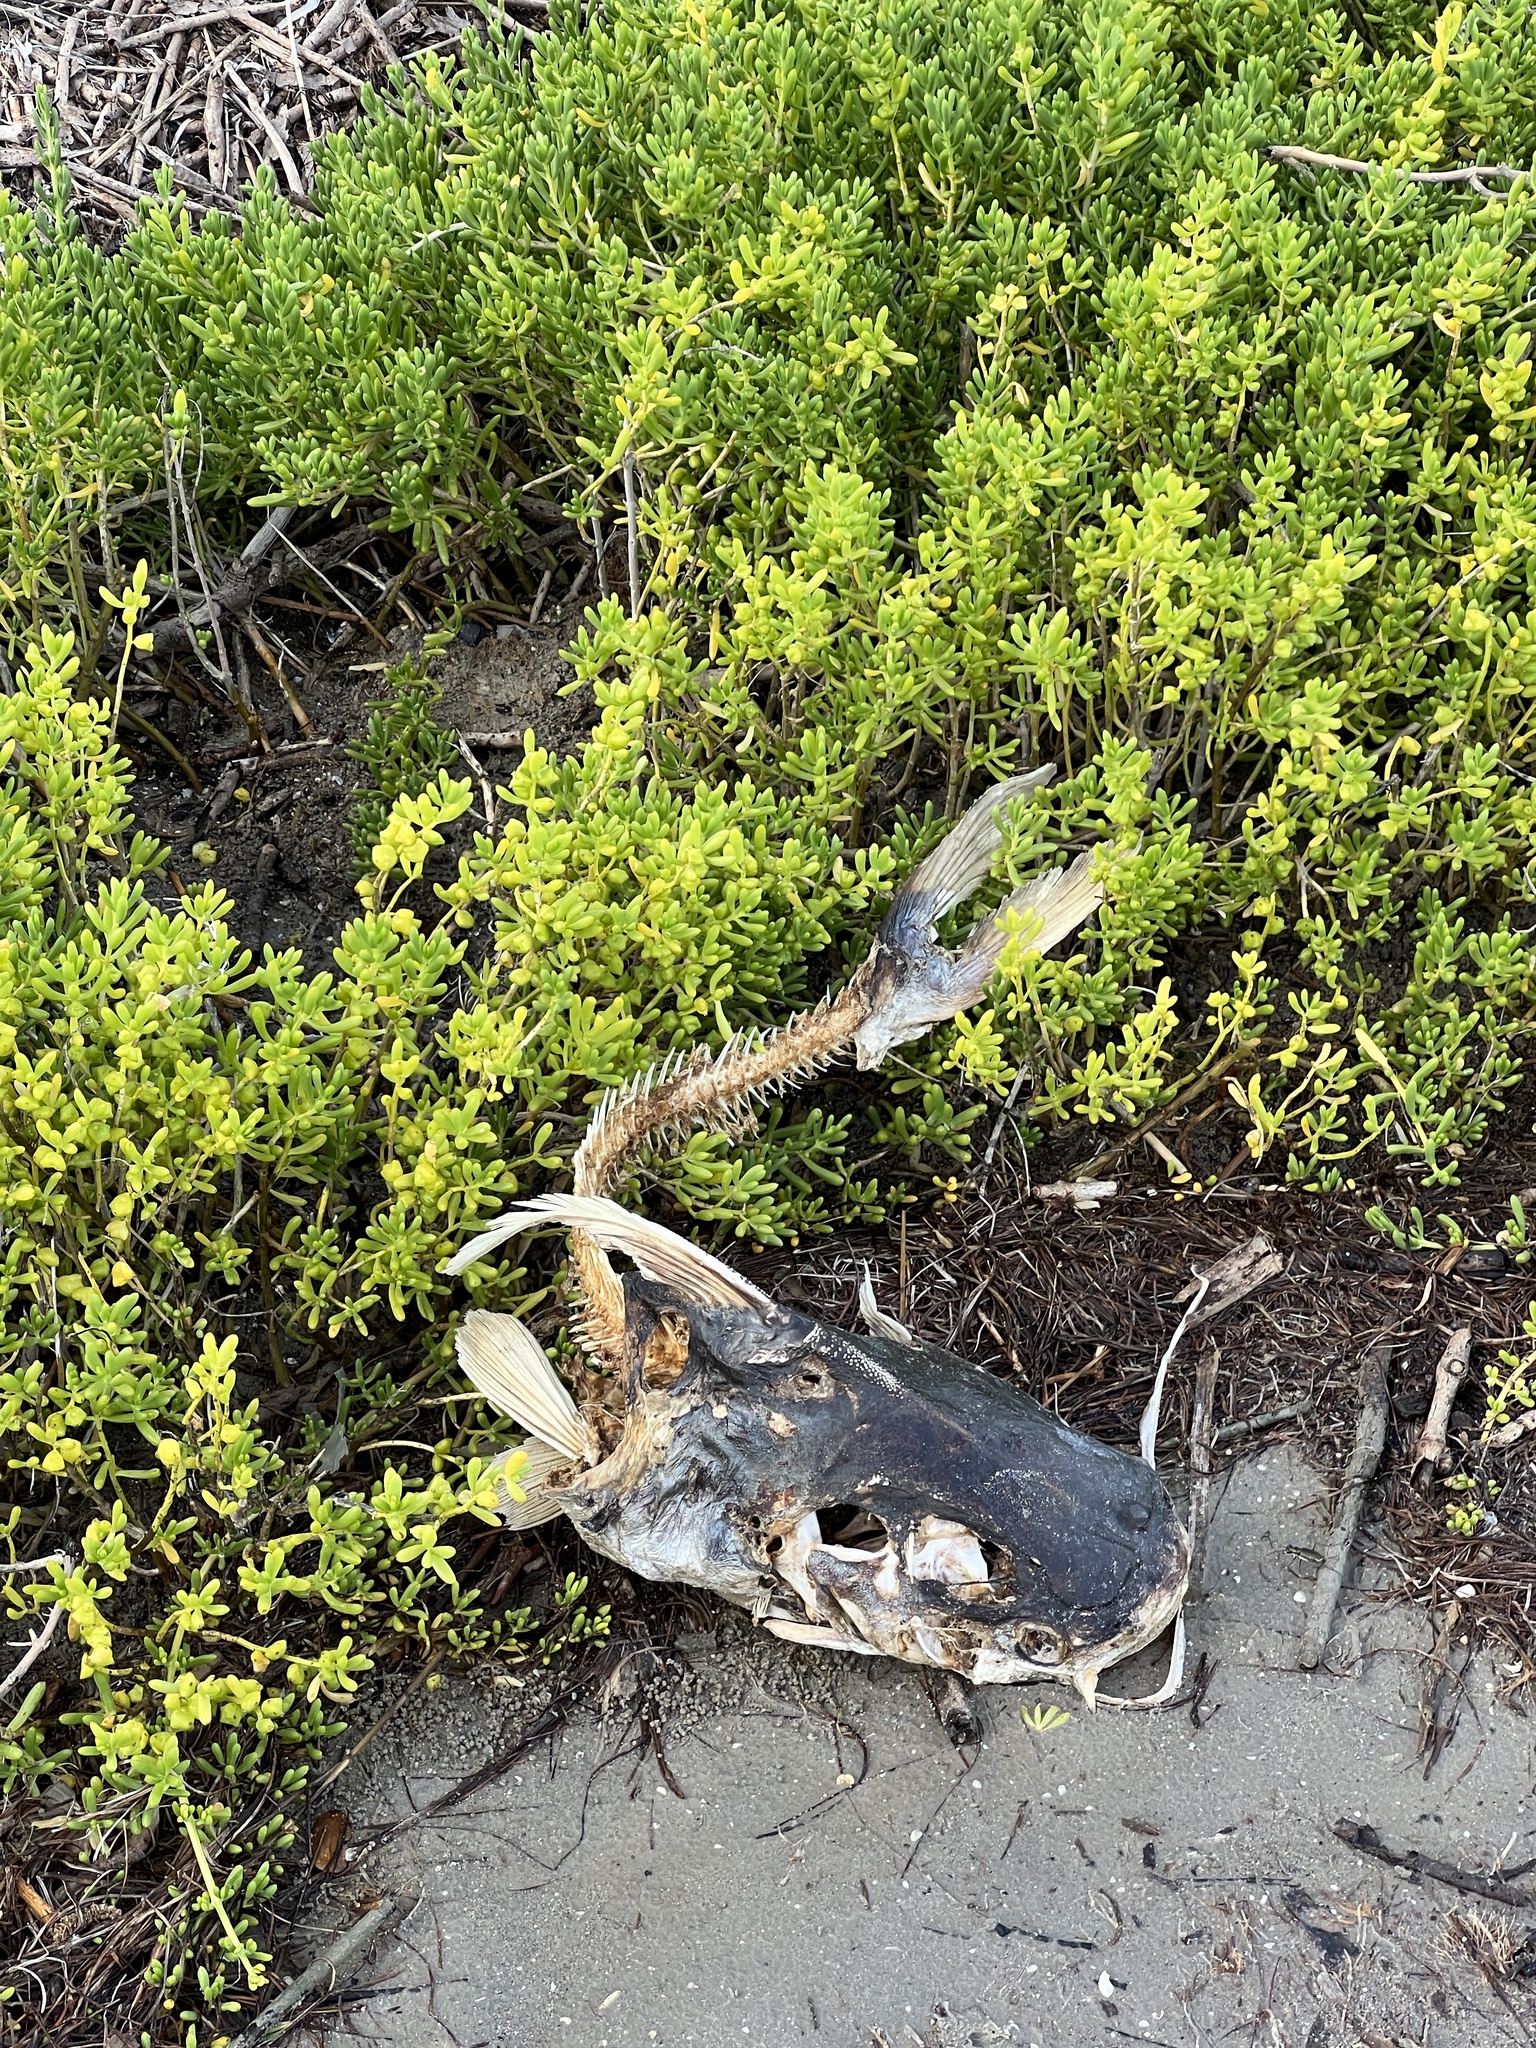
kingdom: Animalia
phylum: Chordata
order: Siluriformes
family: Ariidae
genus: Bagre
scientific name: Bagre marinus
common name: Gafftopsail sea catfish
